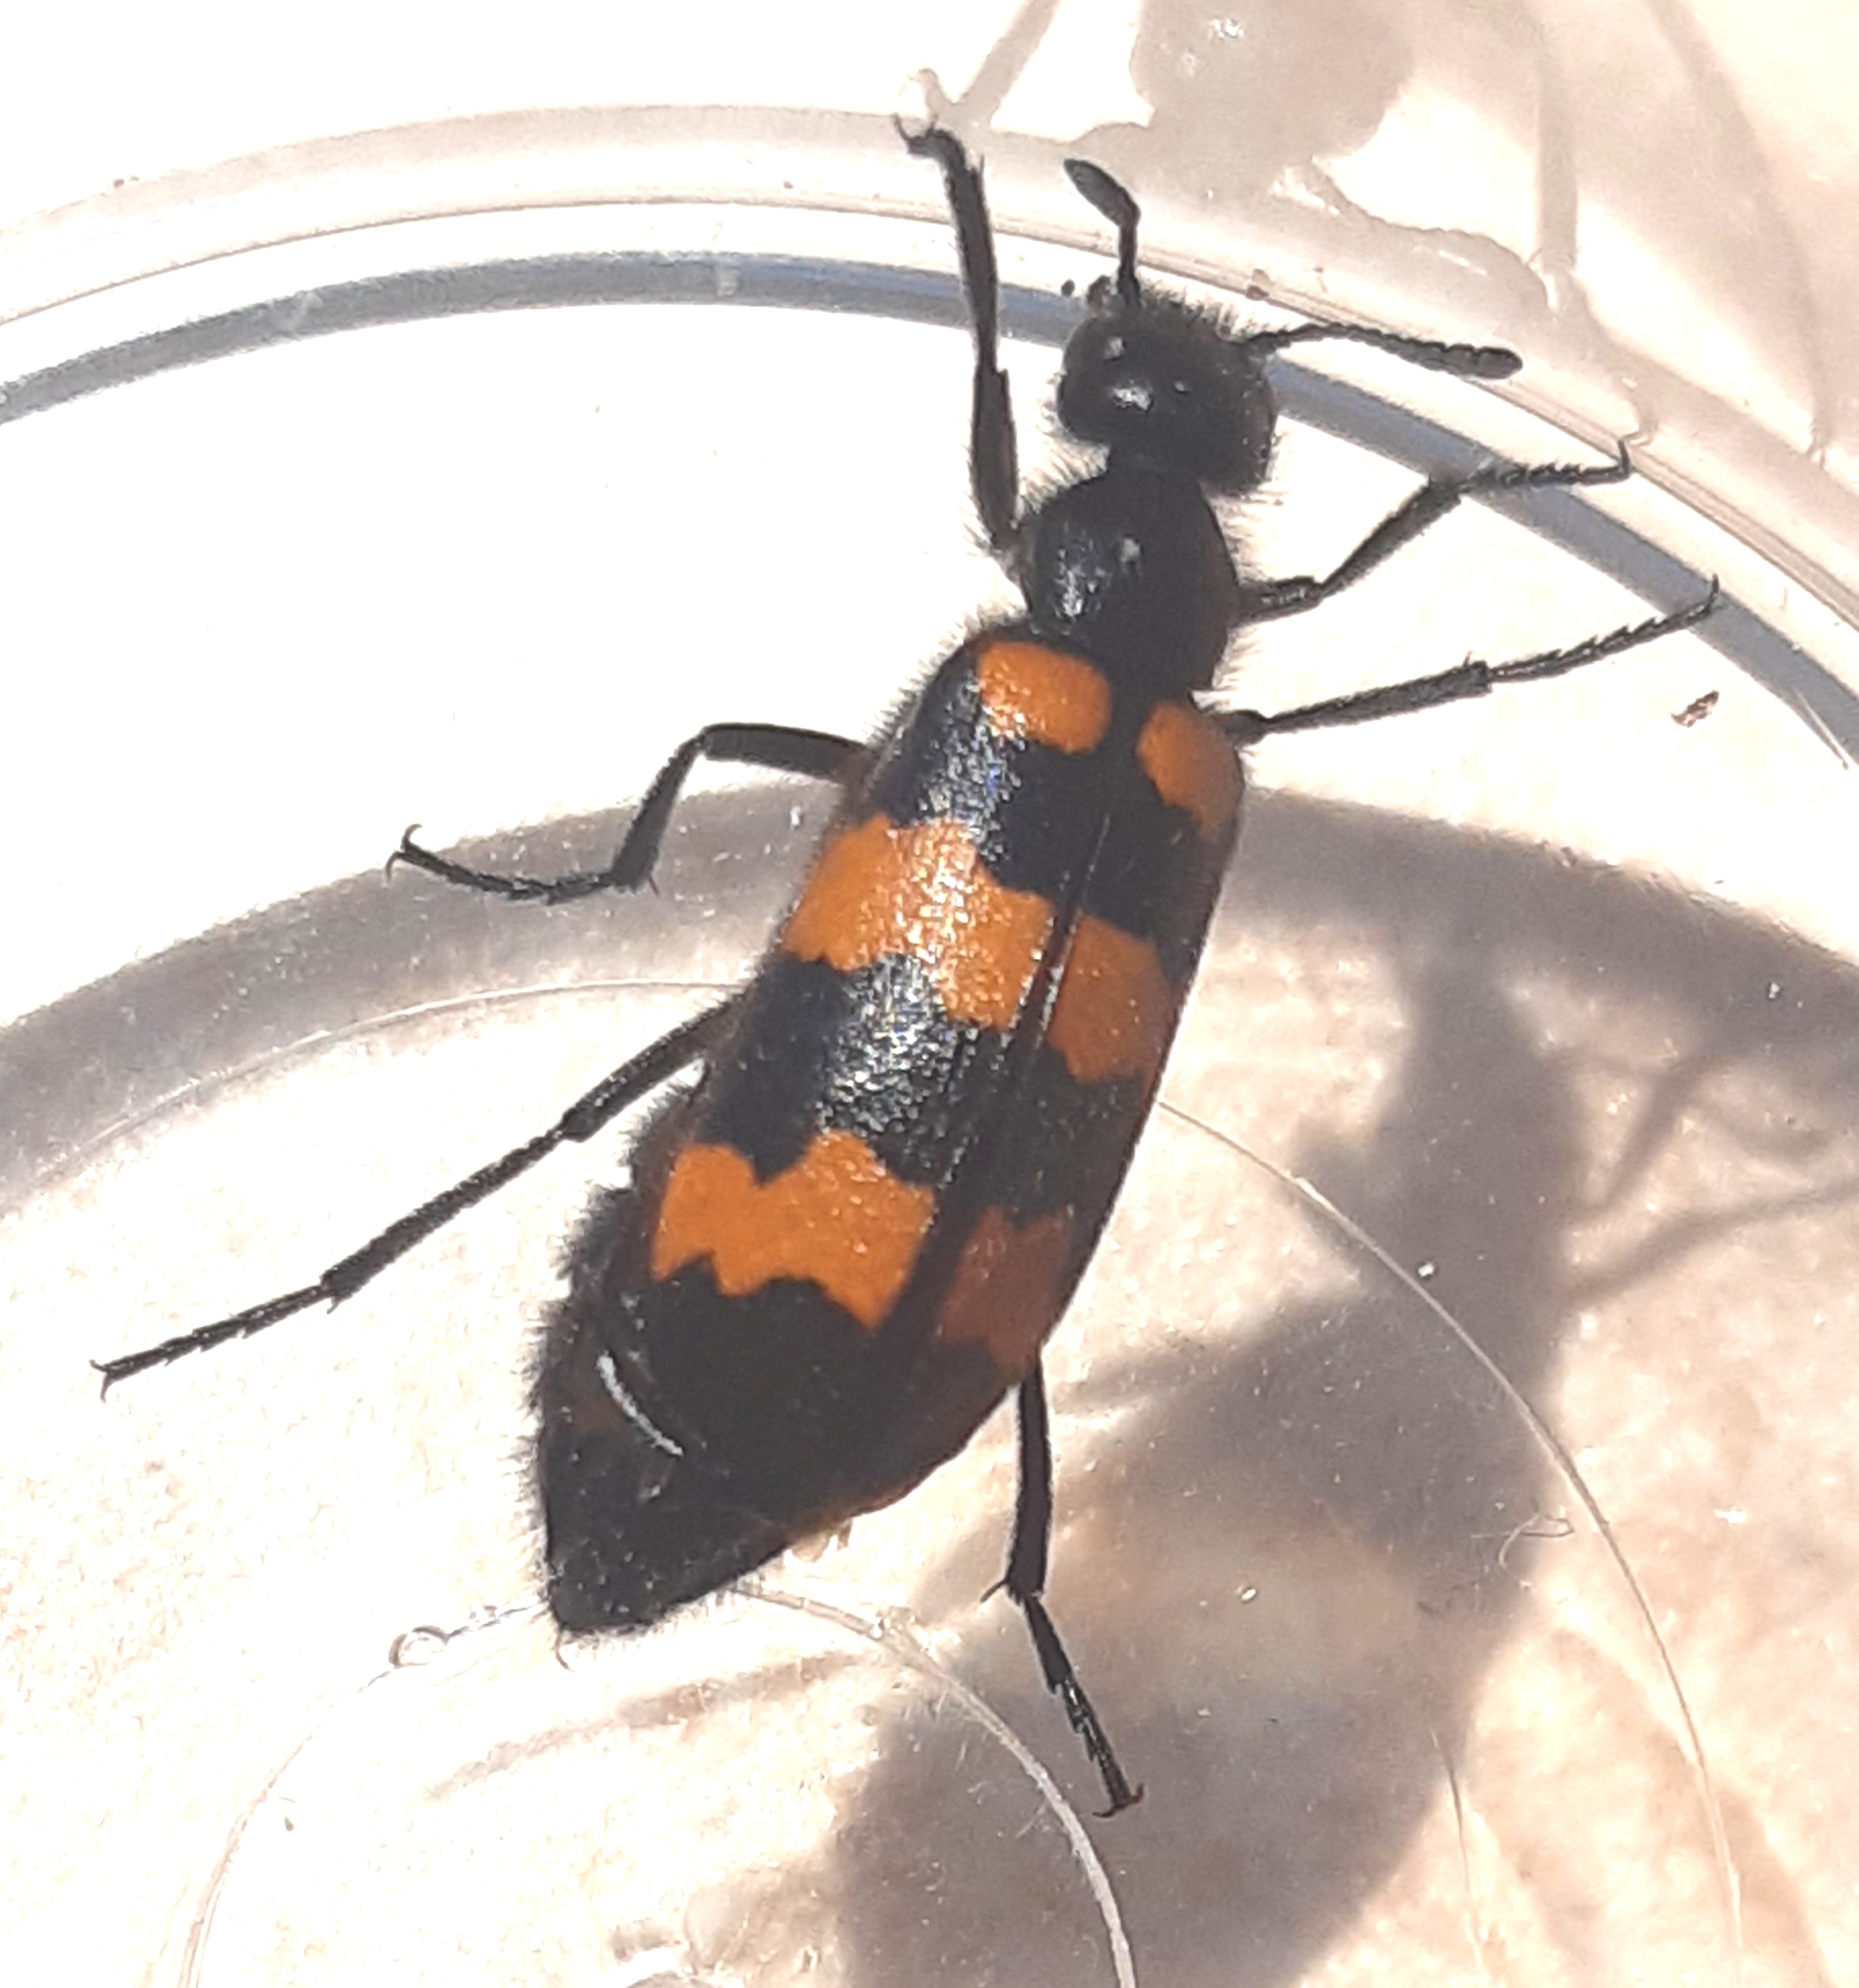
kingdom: Animalia
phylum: Arthropoda
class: Insecta
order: Coleoptera
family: Meloidae
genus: Mylabris
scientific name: Mylabris variabilis
